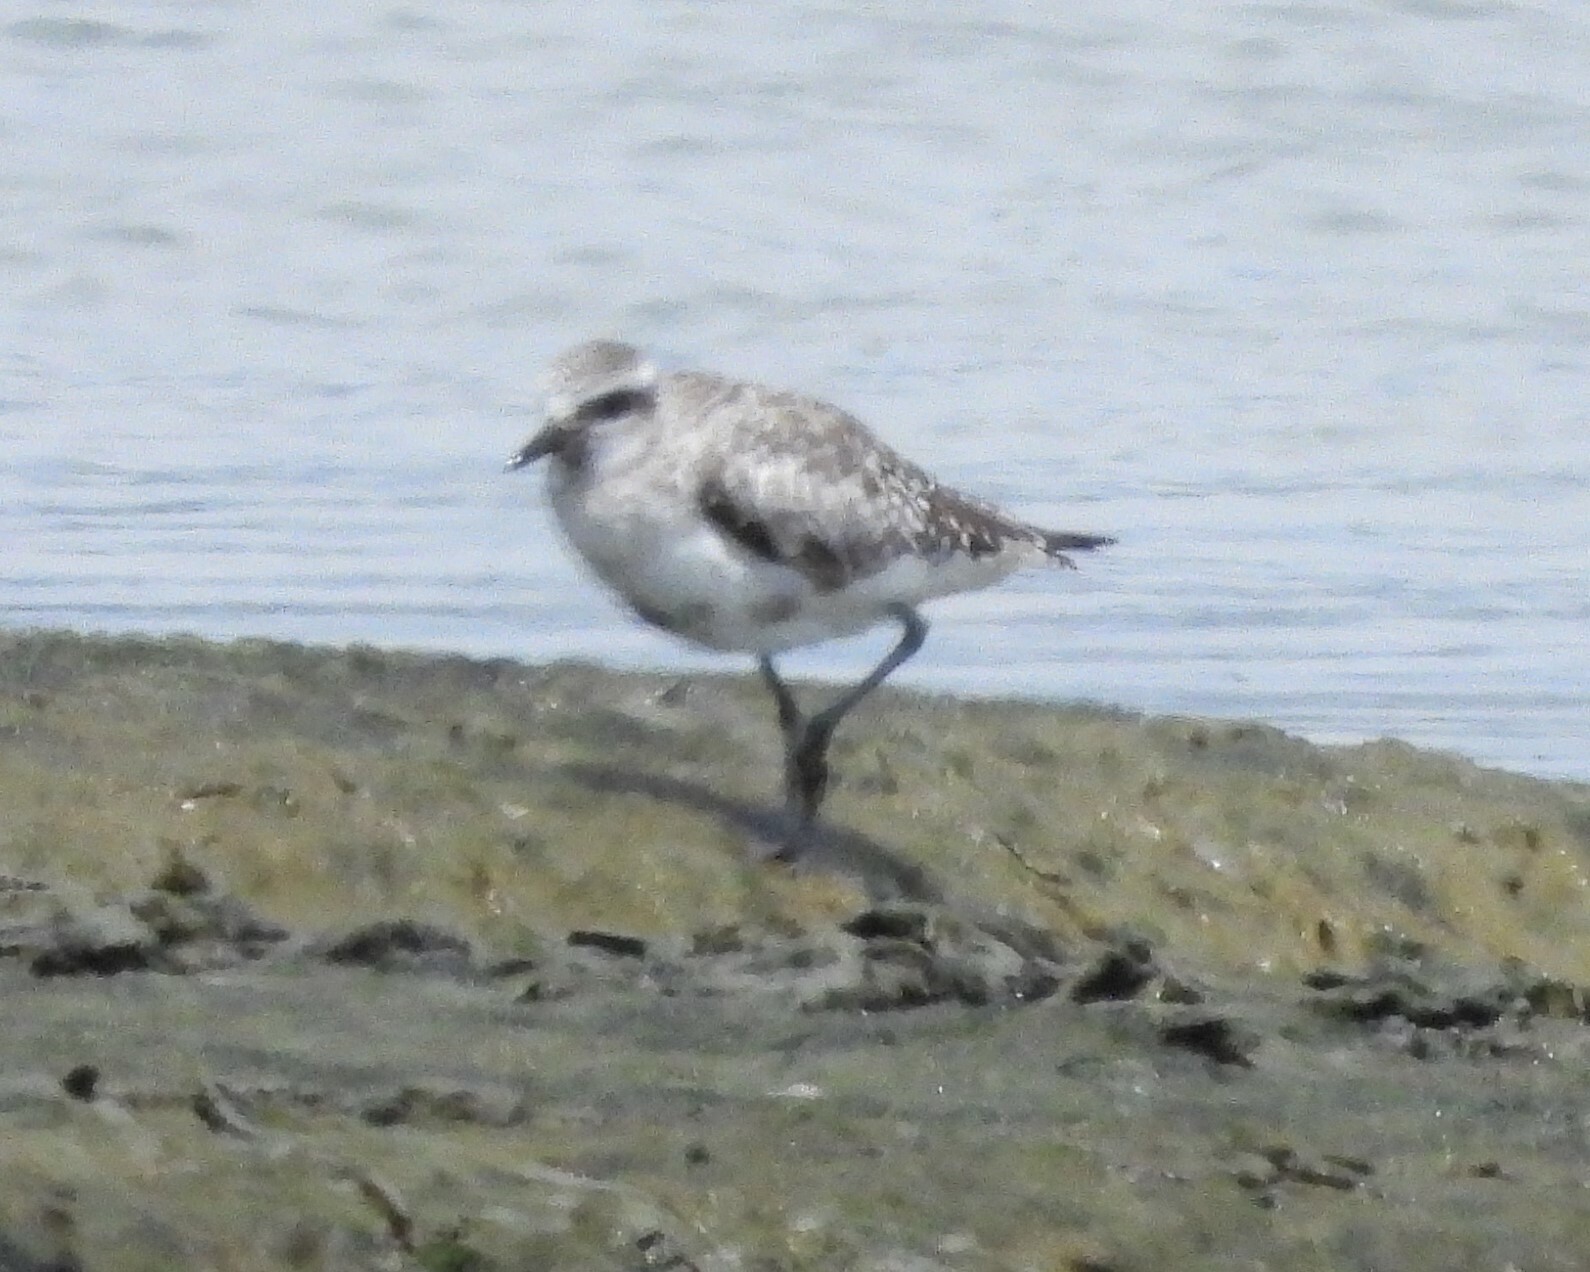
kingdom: Animalia
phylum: Chordata
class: Aves
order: Charadriiformes
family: Charadriidae
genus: Pluvialis
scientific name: Pluvialis squatarola
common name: Grey plover
